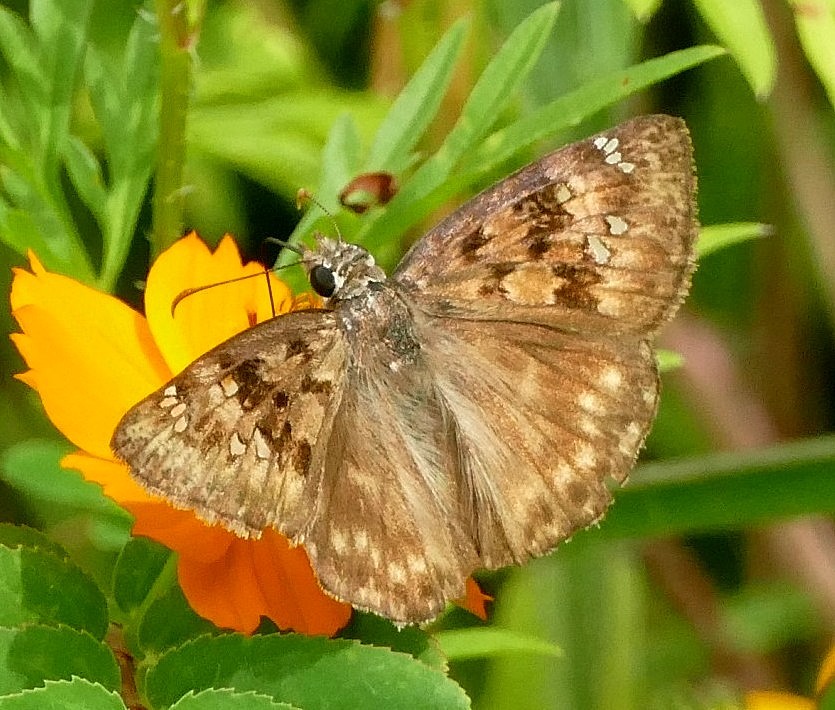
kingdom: Animalia
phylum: Arthropoda
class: Insecta
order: Lepidoptera
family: Hesperiidae
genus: Erynnis
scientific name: Erynnis horatius
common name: Horace's duskywing
